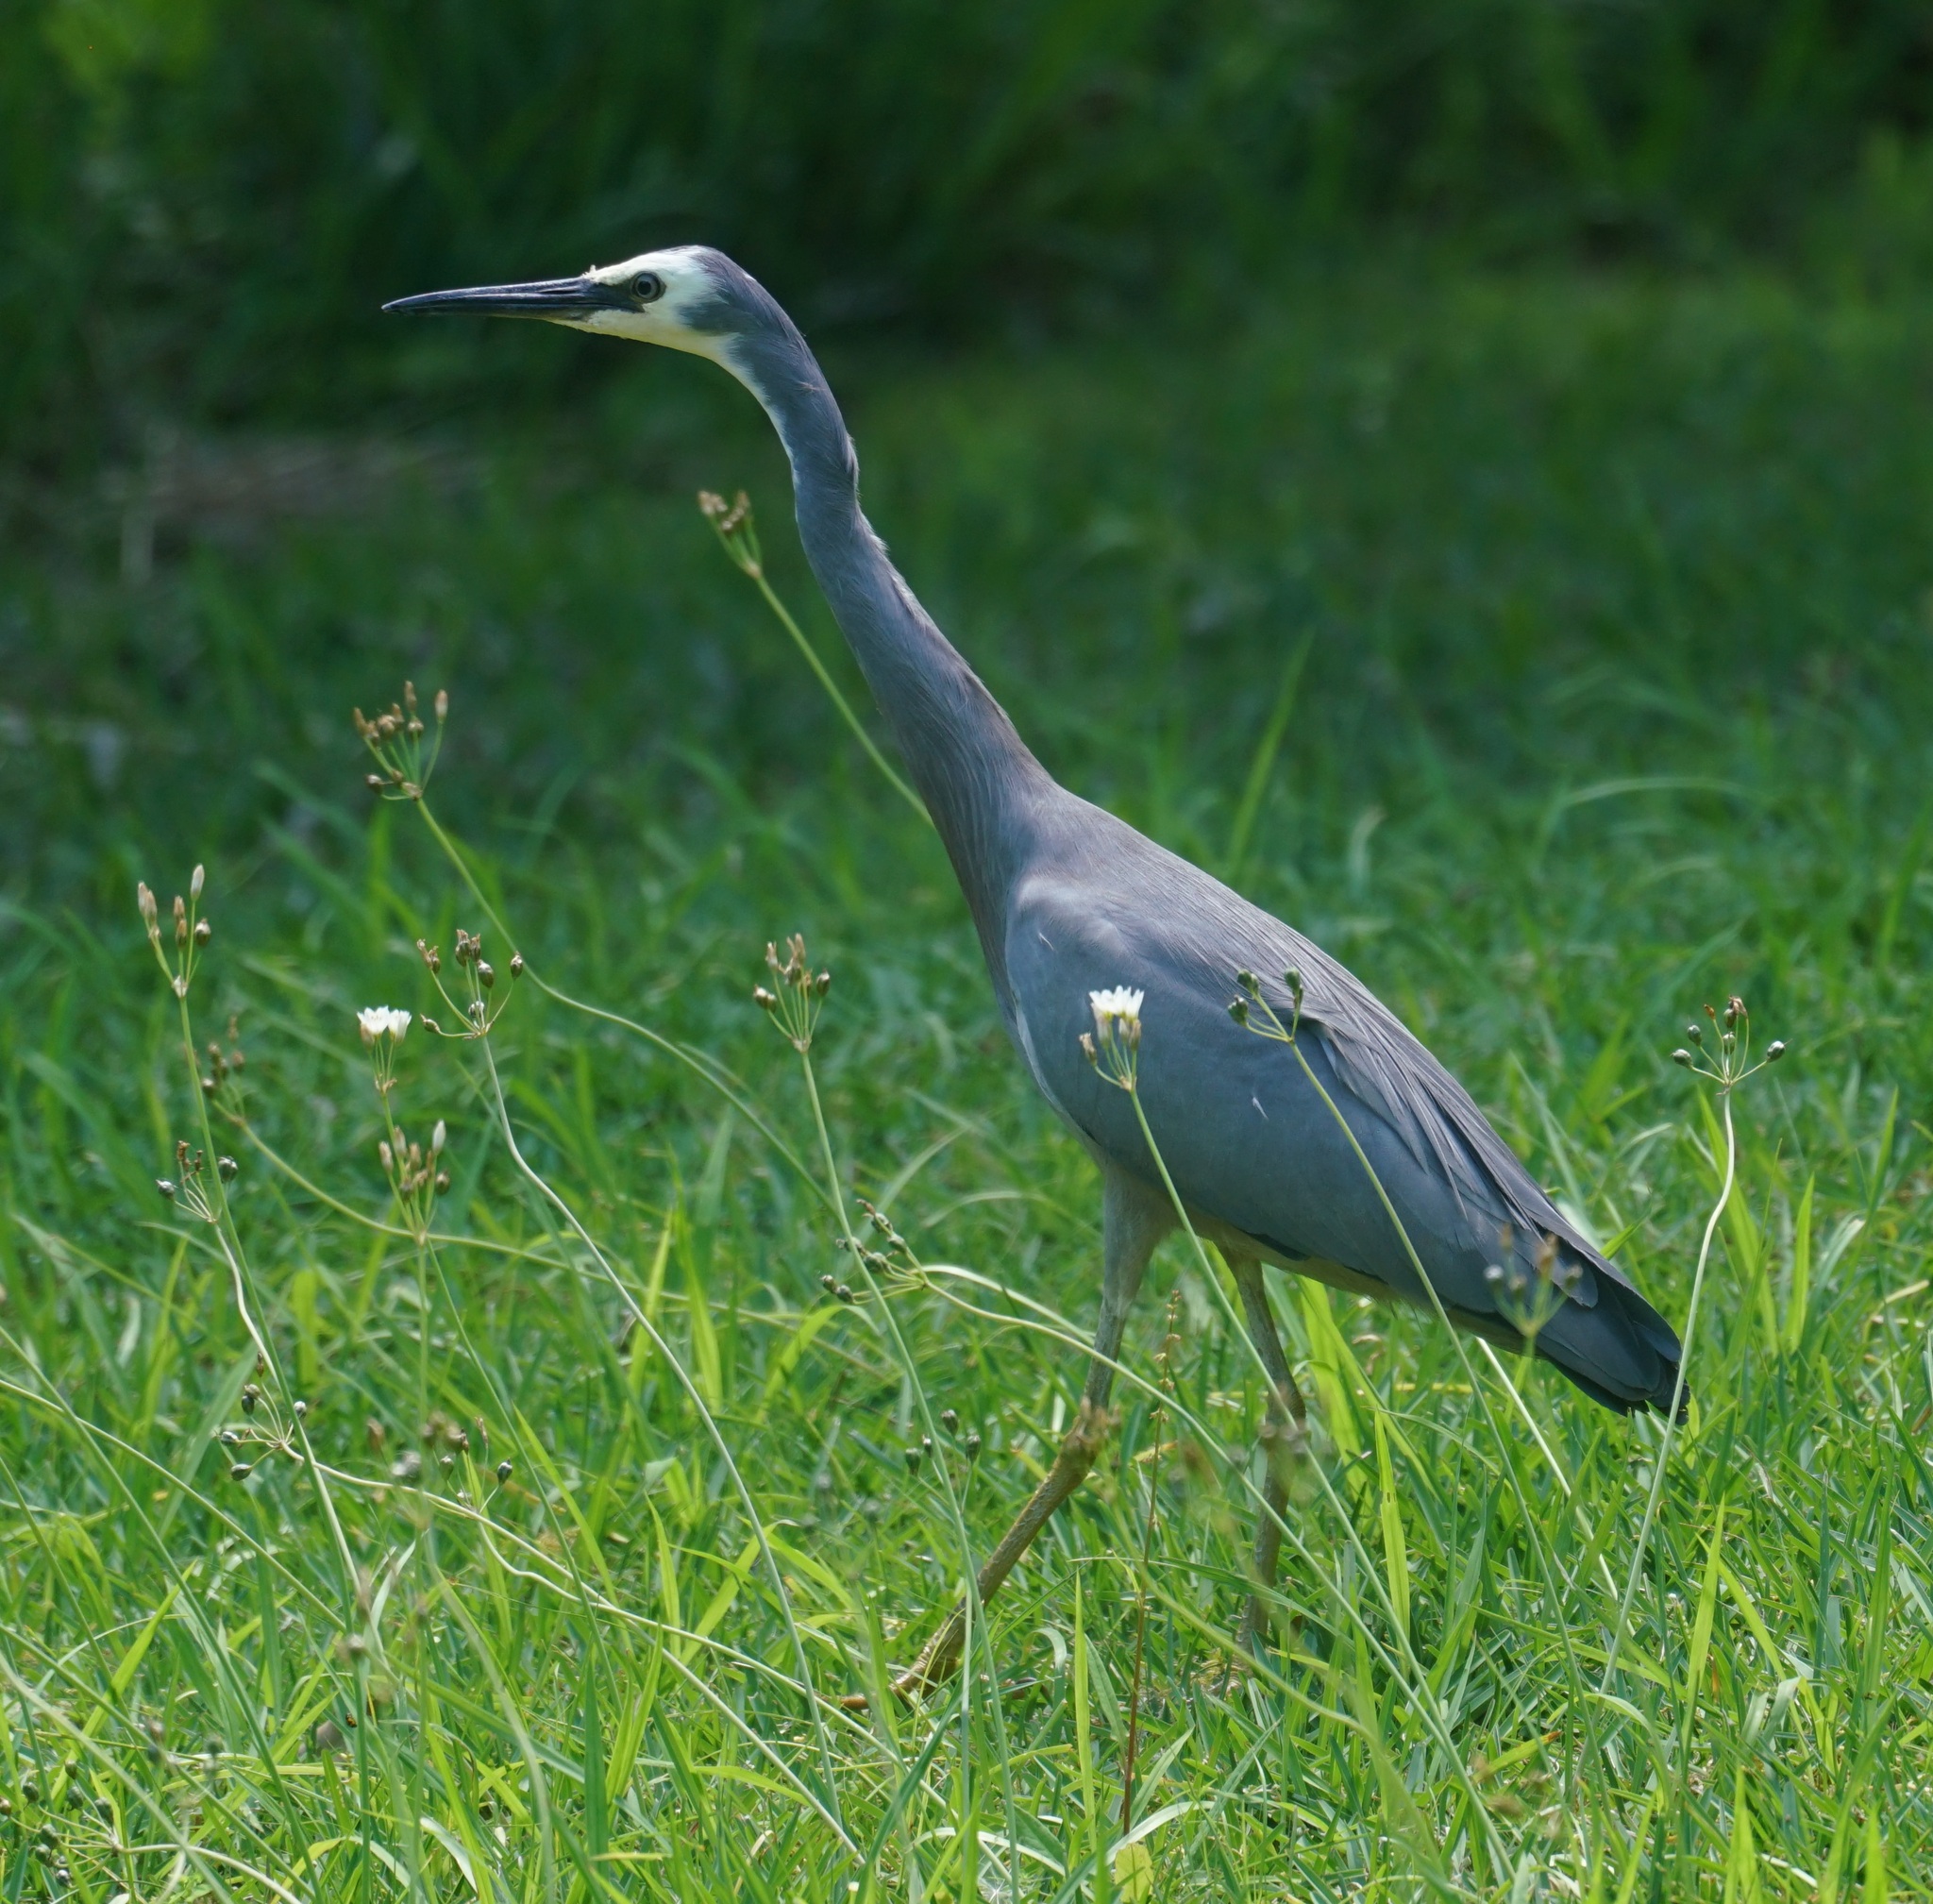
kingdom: Animalia
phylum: Chordata
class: Aves
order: Pelecaniformes
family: Ardeidae
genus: Egretta
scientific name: Egretta novaehollandiae
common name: White-faced heron
